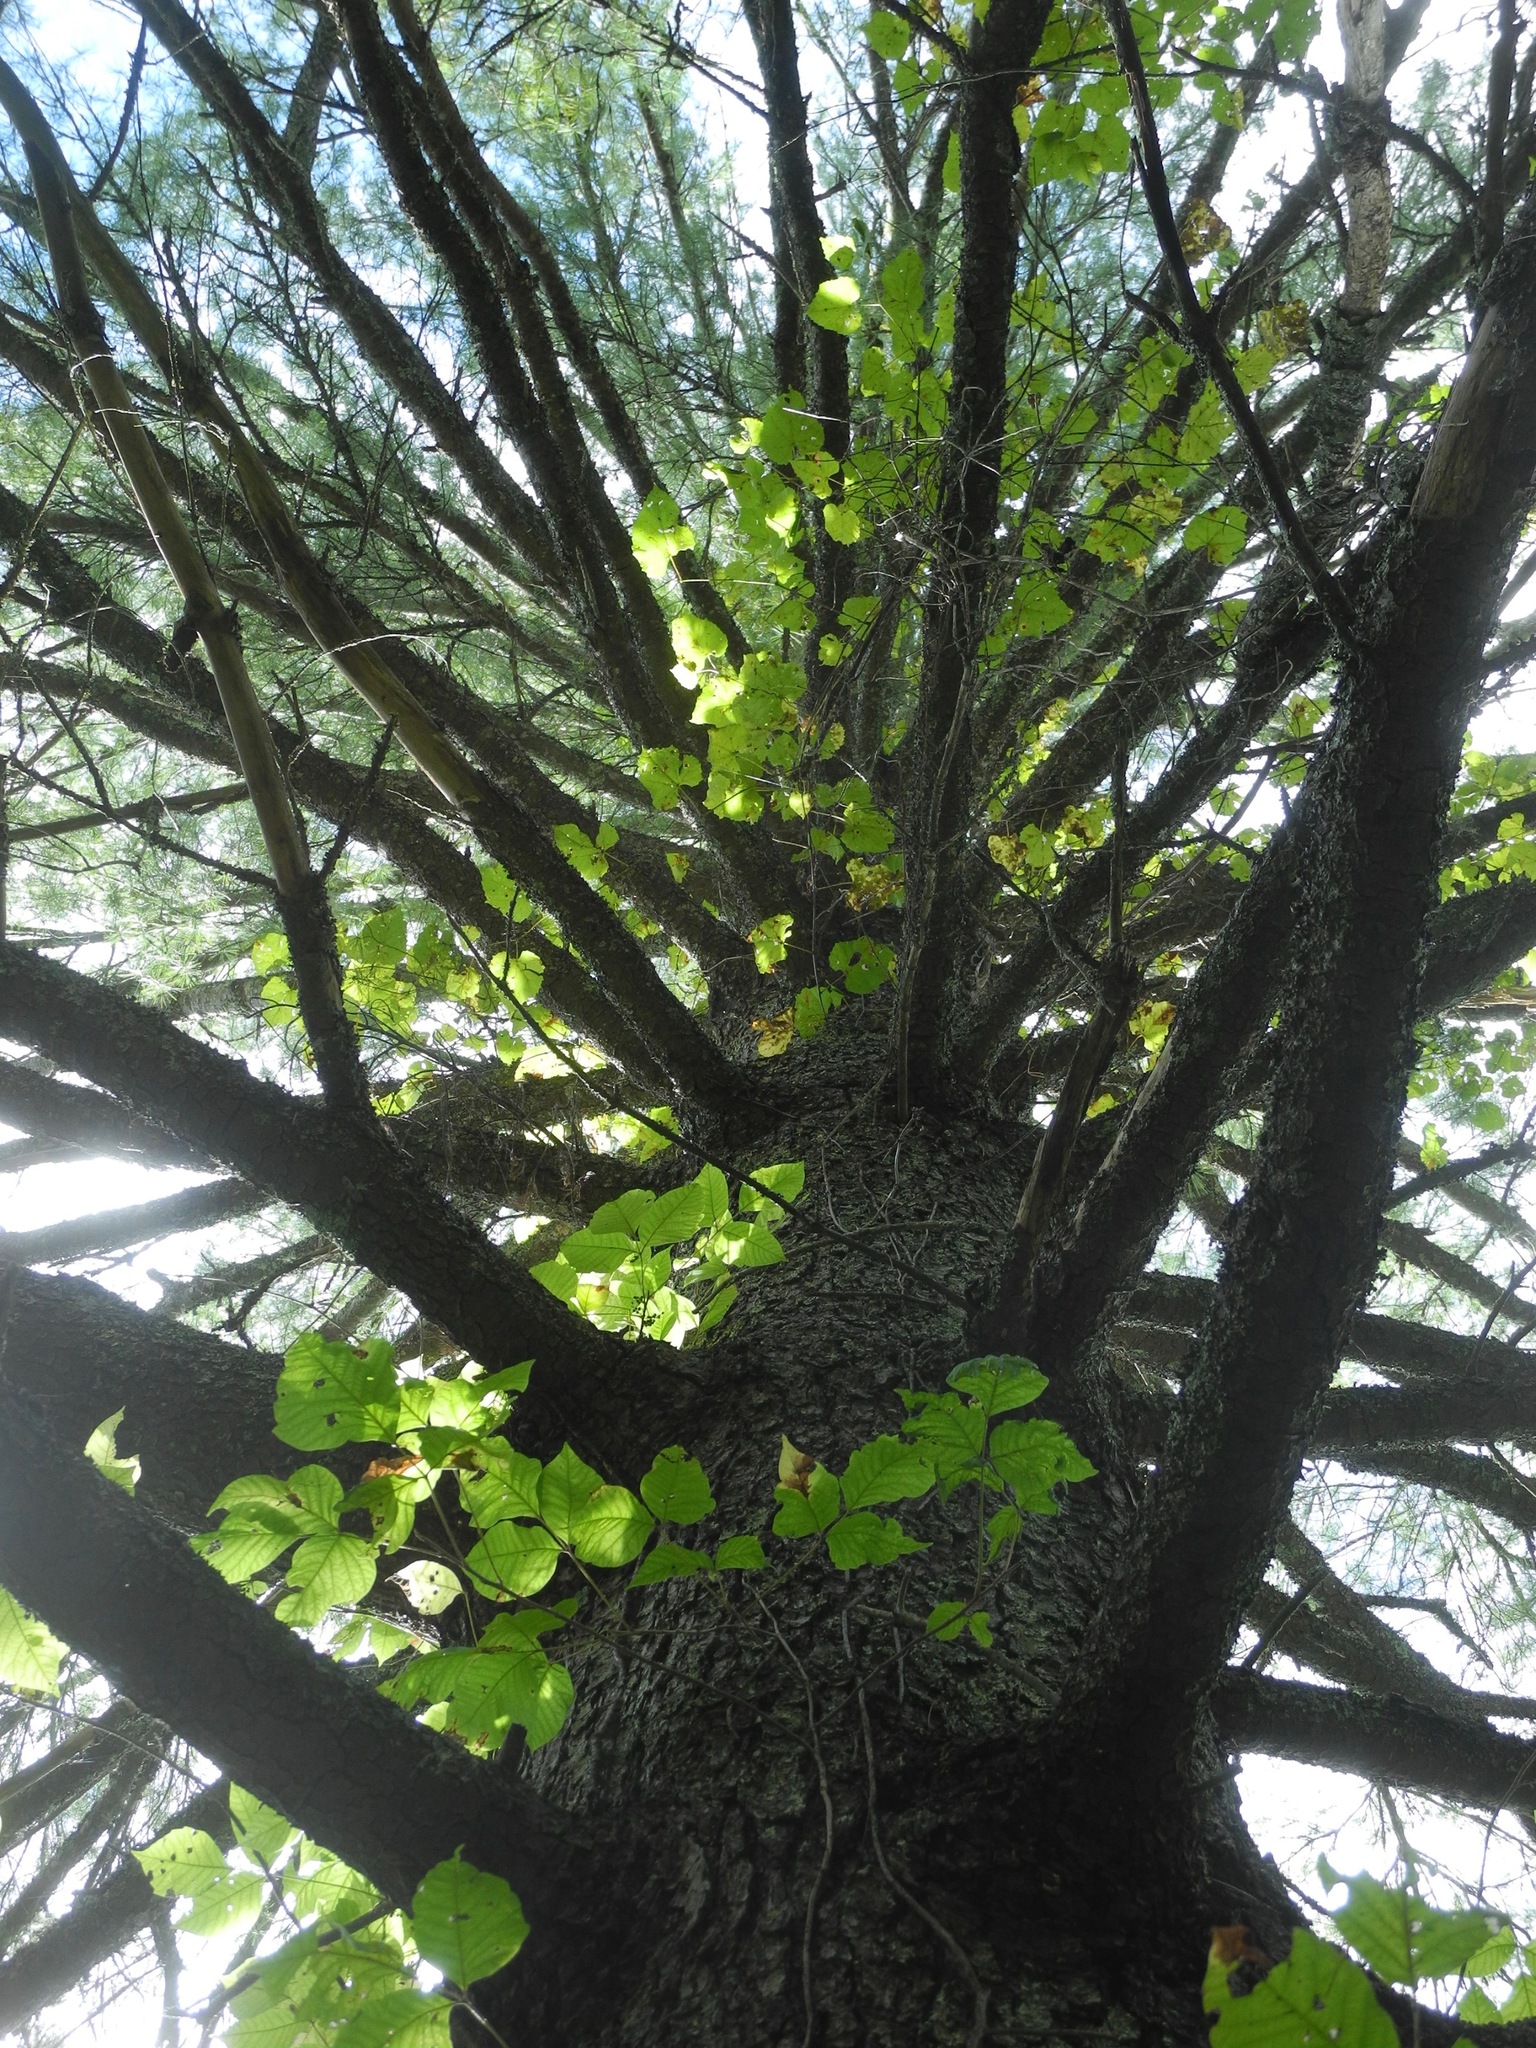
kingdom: Plantae
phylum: Tracheophyta
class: Pinopsida
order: Pinales
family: Pinaceae
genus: Pinus
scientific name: Pinus strobus
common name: Weymouth pine
